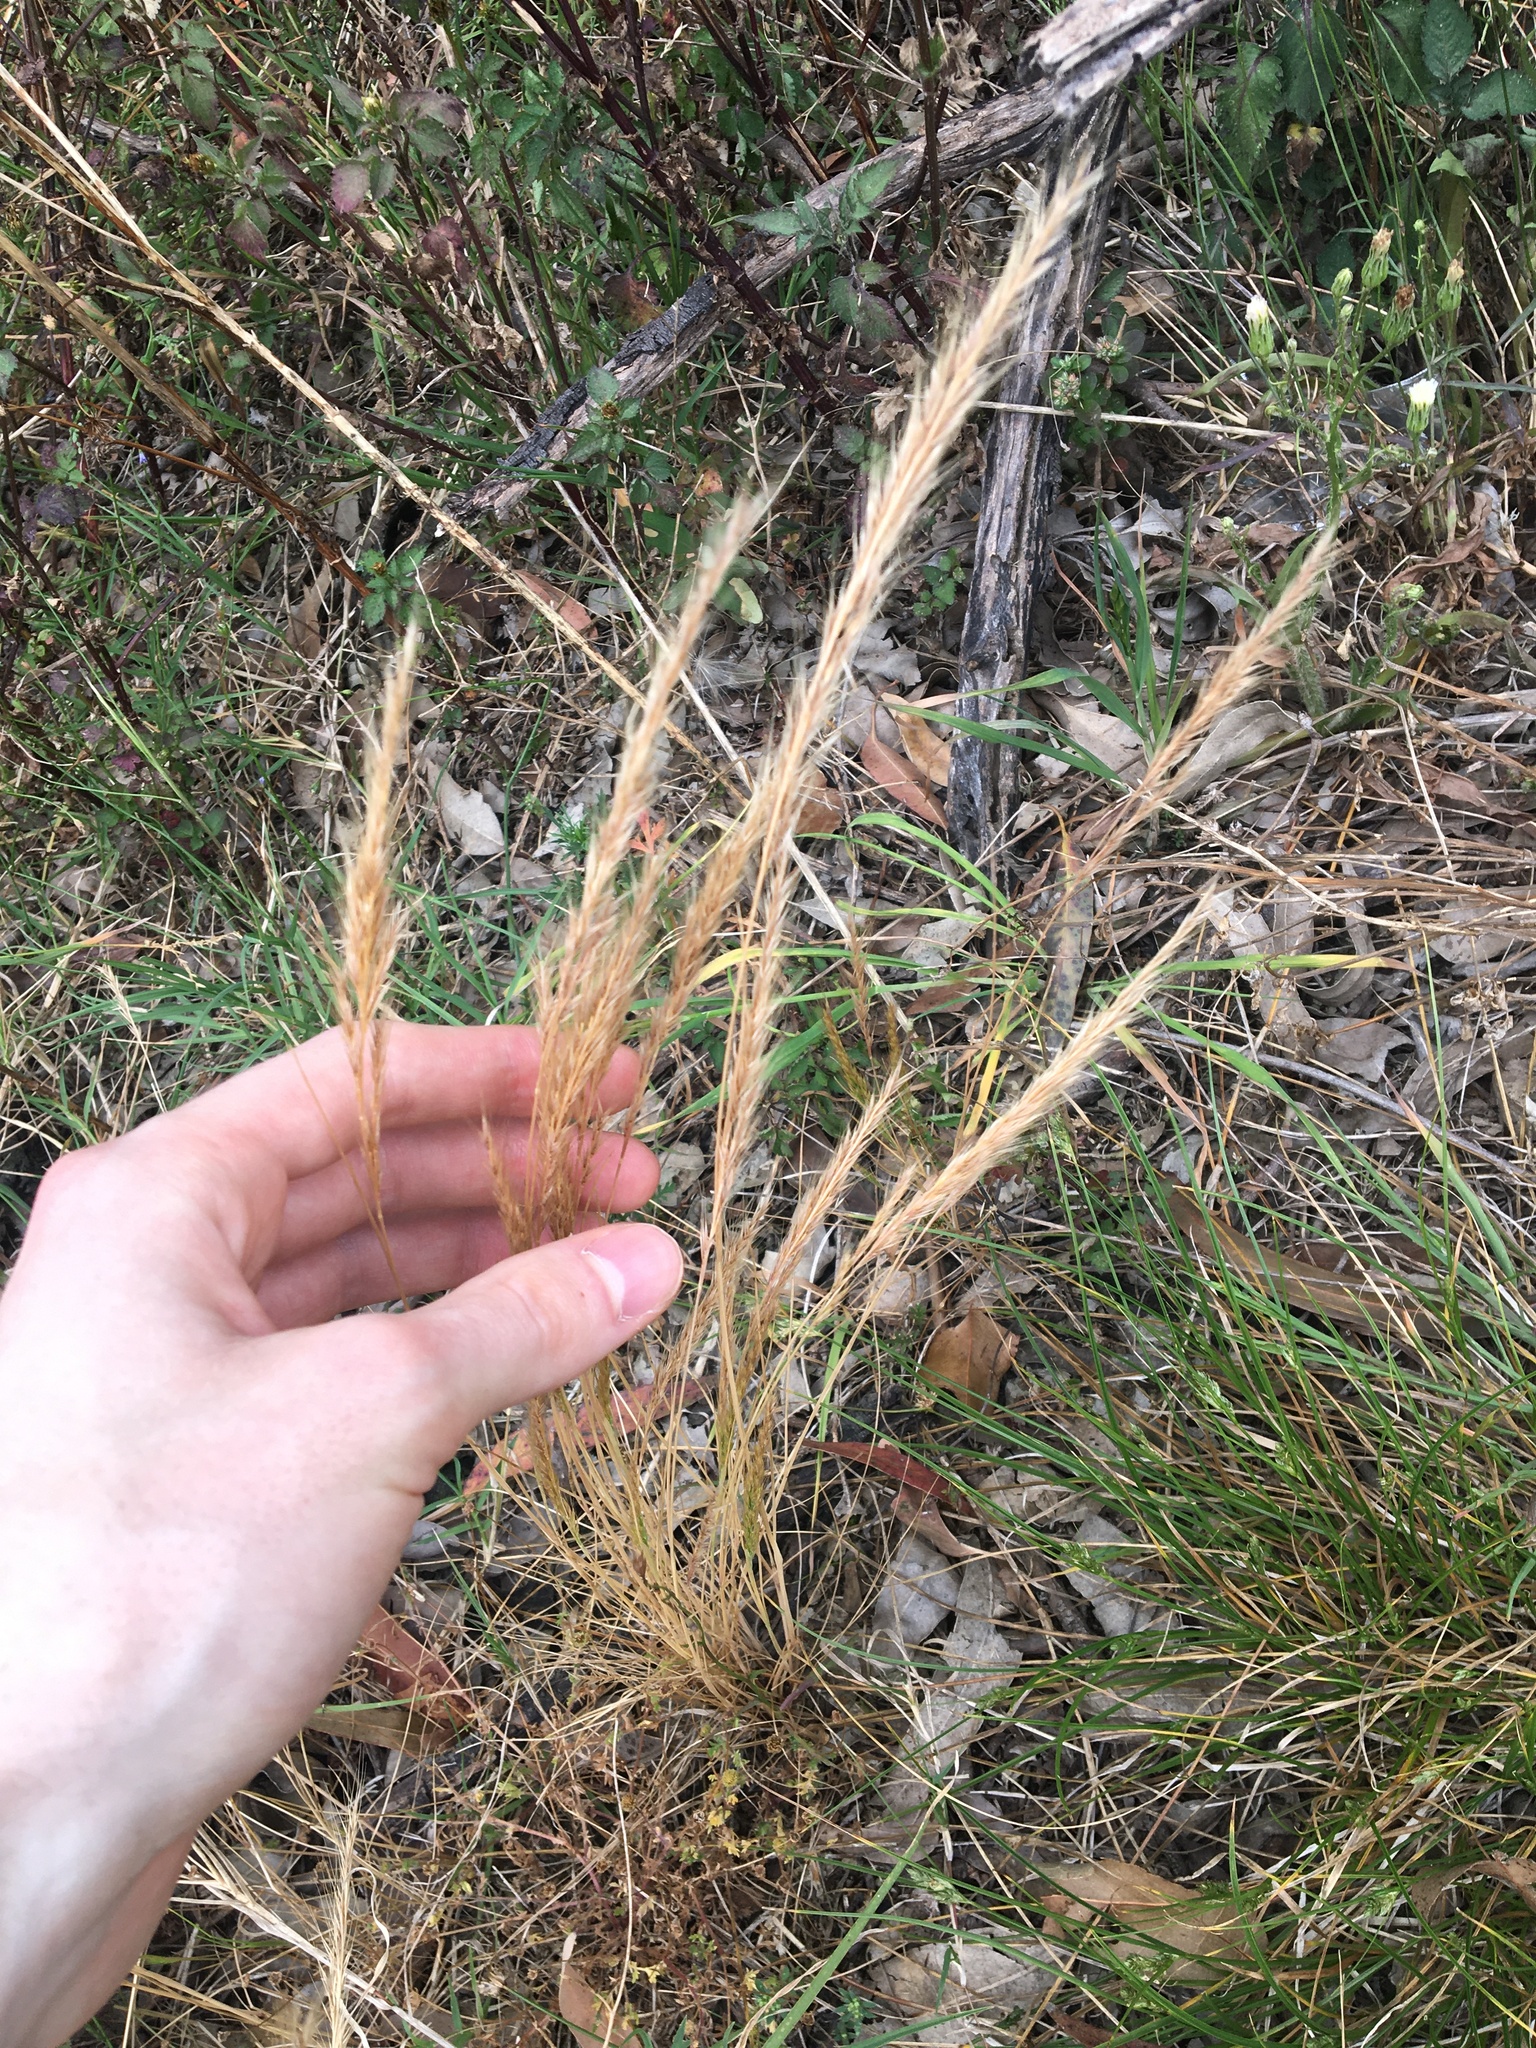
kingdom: Plantae
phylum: Tracheophyta
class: Liliopsida
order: Poales
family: Poaceae
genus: Festuca
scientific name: Festuca muralis
